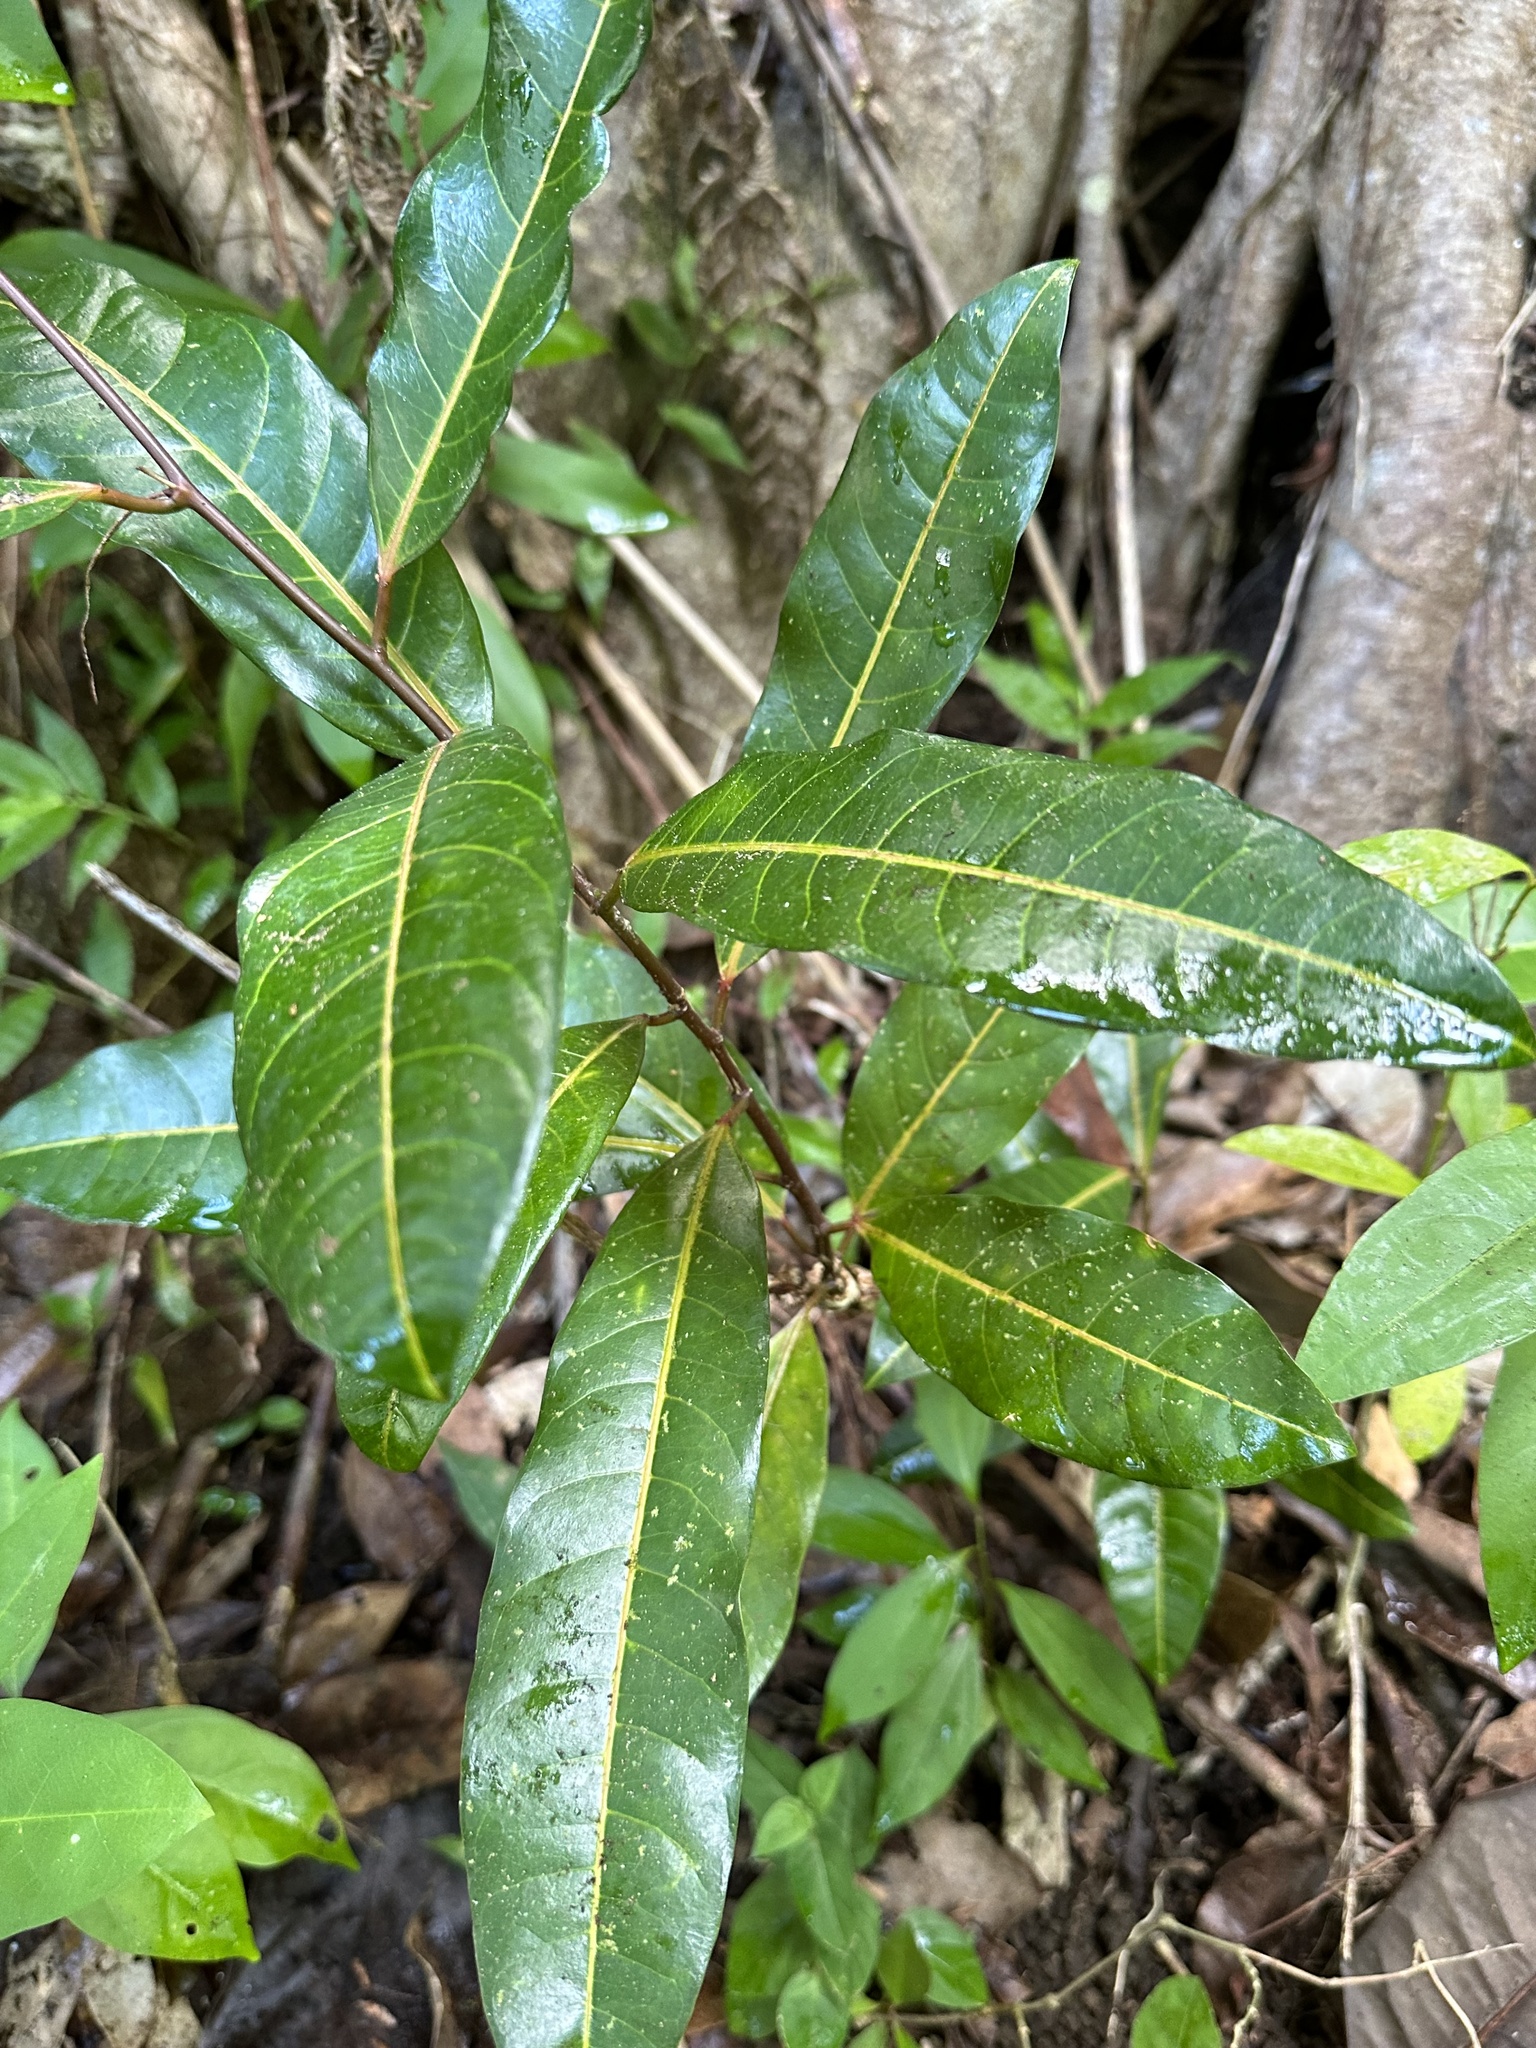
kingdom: Plantae
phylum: Tracheophyta
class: Magnoliopsida
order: Malpighiales
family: Passifloraceae
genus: Passiflora
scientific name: Passiflora laurifolia
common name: Bell apple
